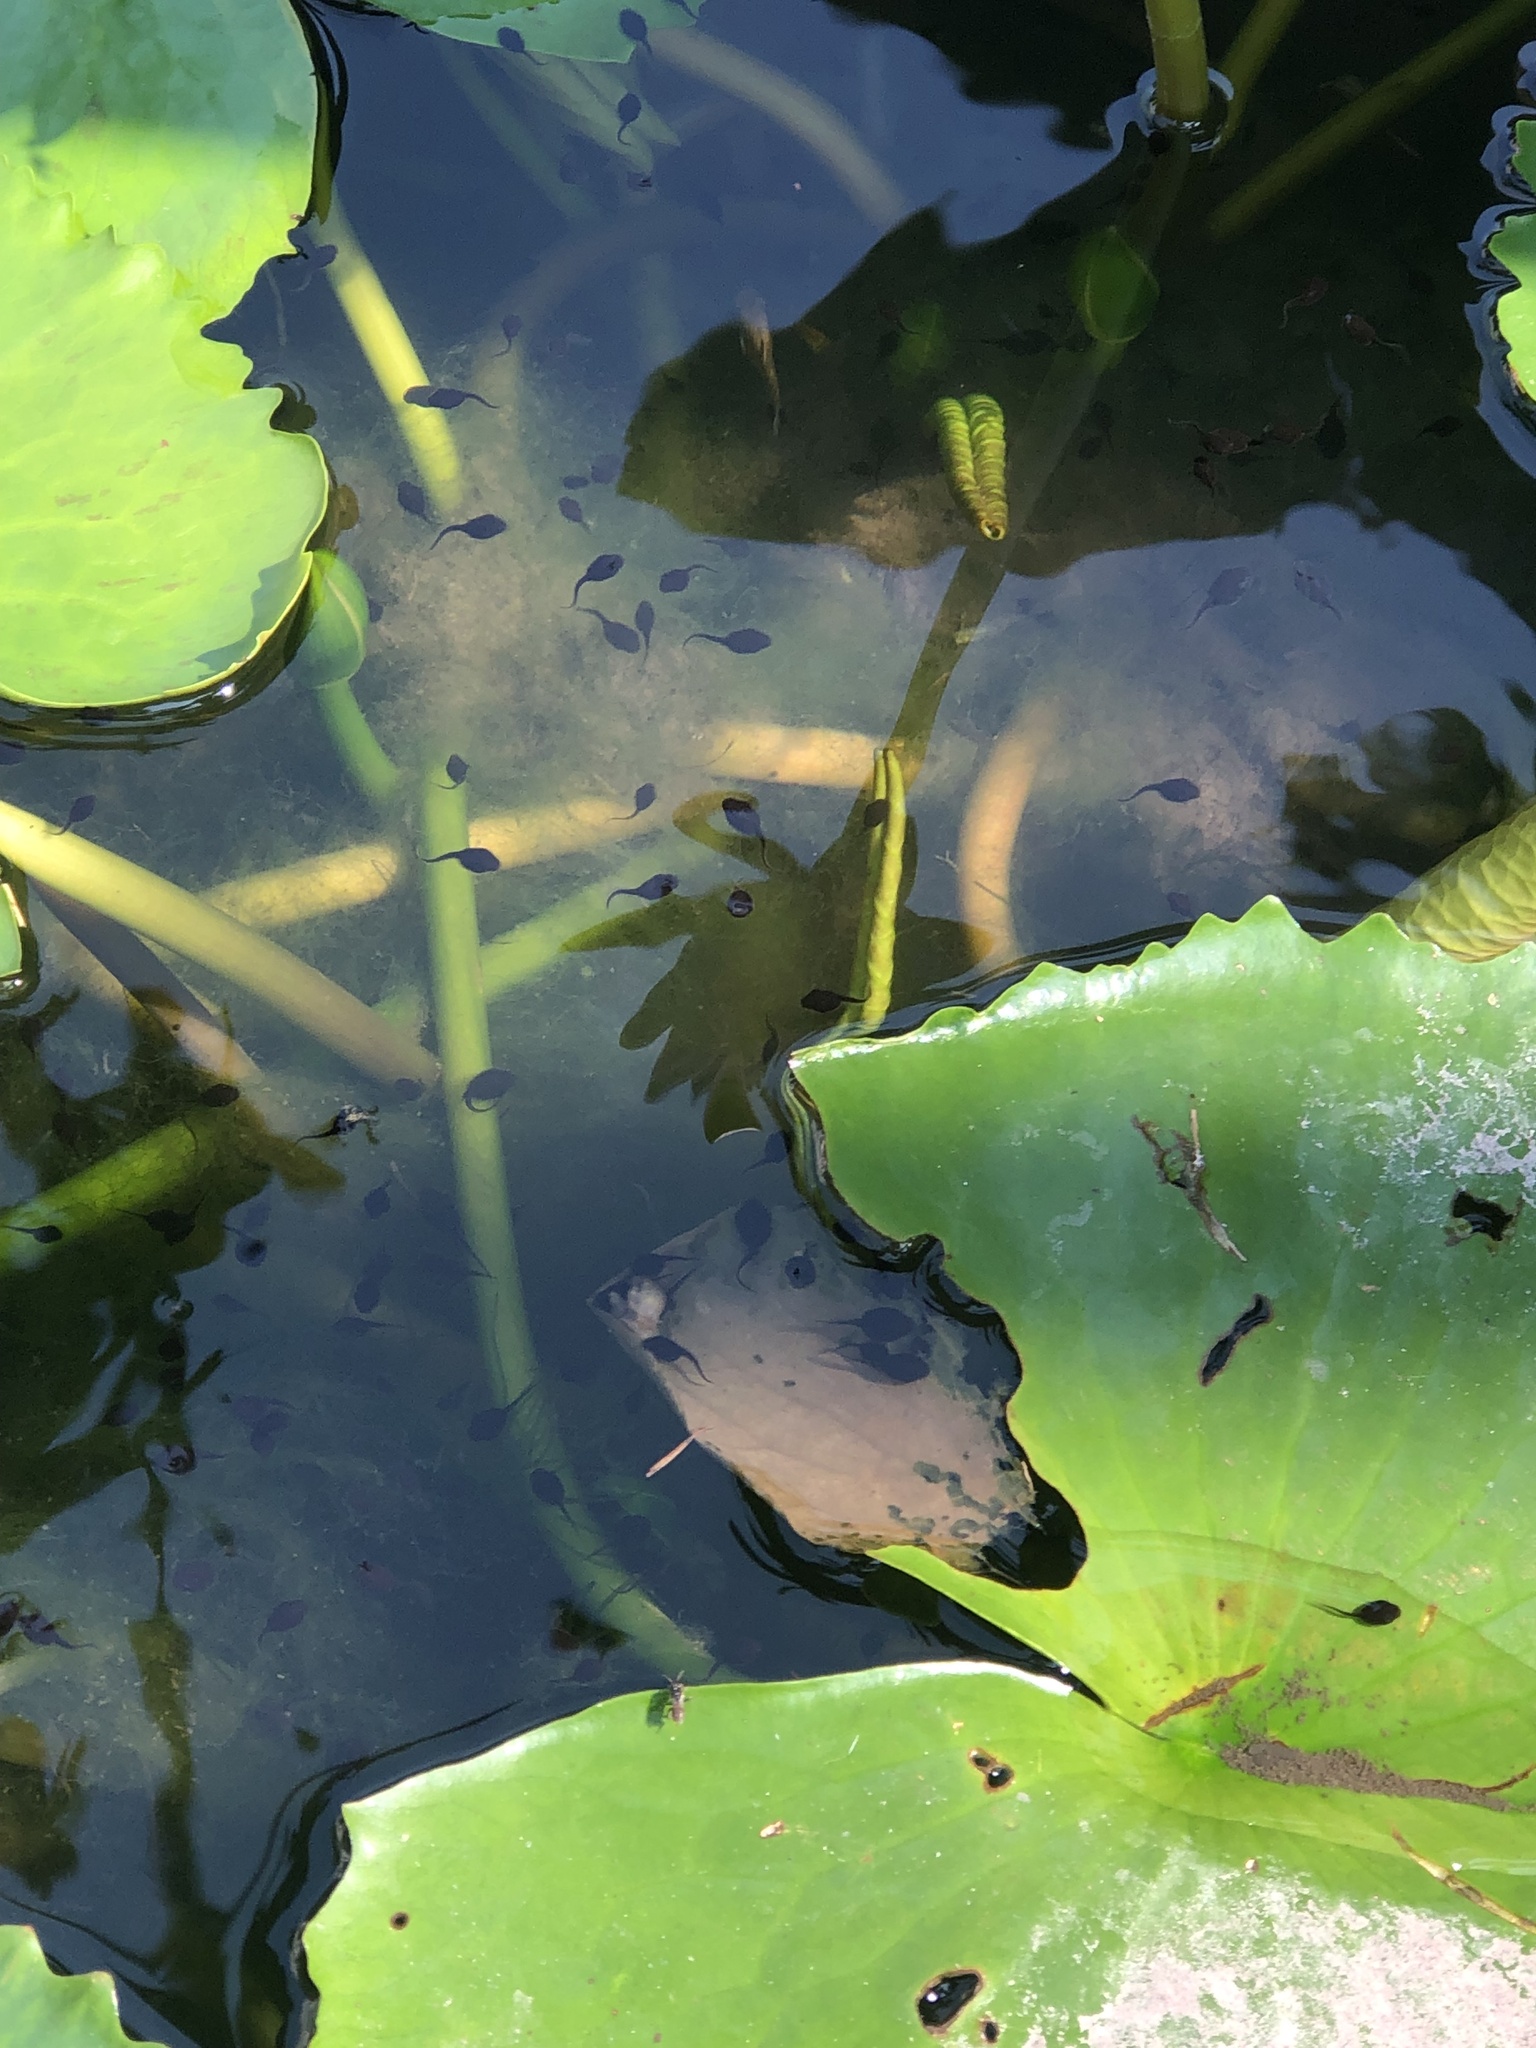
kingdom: Animalia
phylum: Chordata
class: Amphibia
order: Anura
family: Bufonidae
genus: Duttaphrynus
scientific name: Duttaphrynus melanostictus
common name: Common sunda toad
